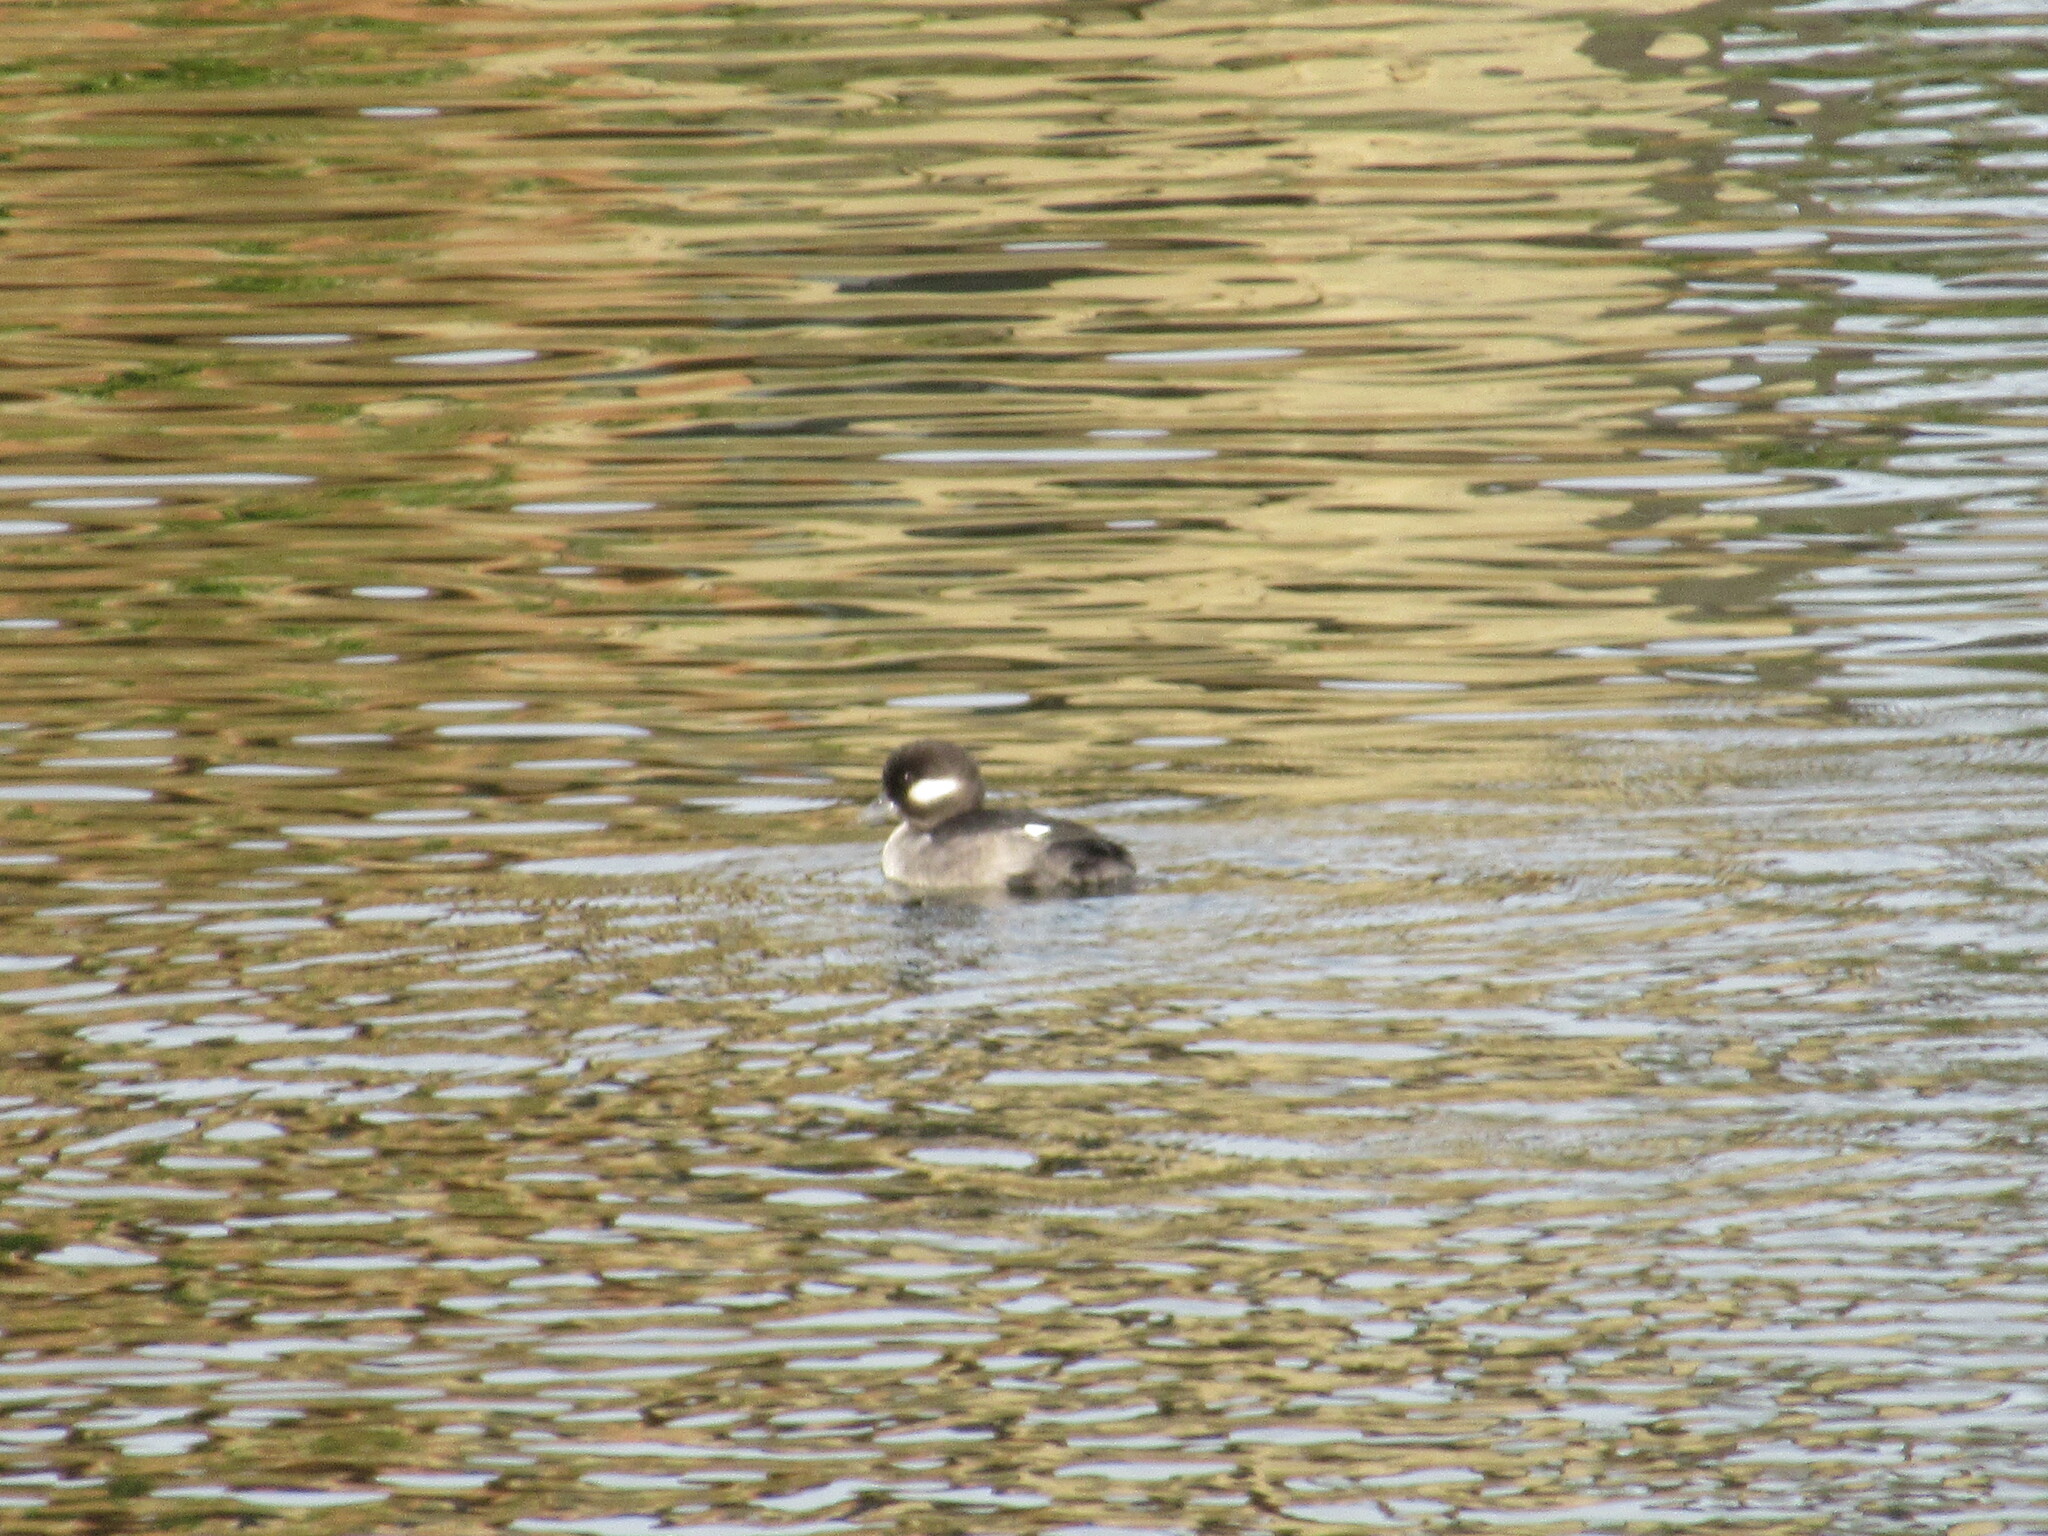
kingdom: Animalia
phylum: Chordata
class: Aves
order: Anseriformes
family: Anatidae
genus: Bucephala
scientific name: Bucephala albeola
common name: Bufflehead
